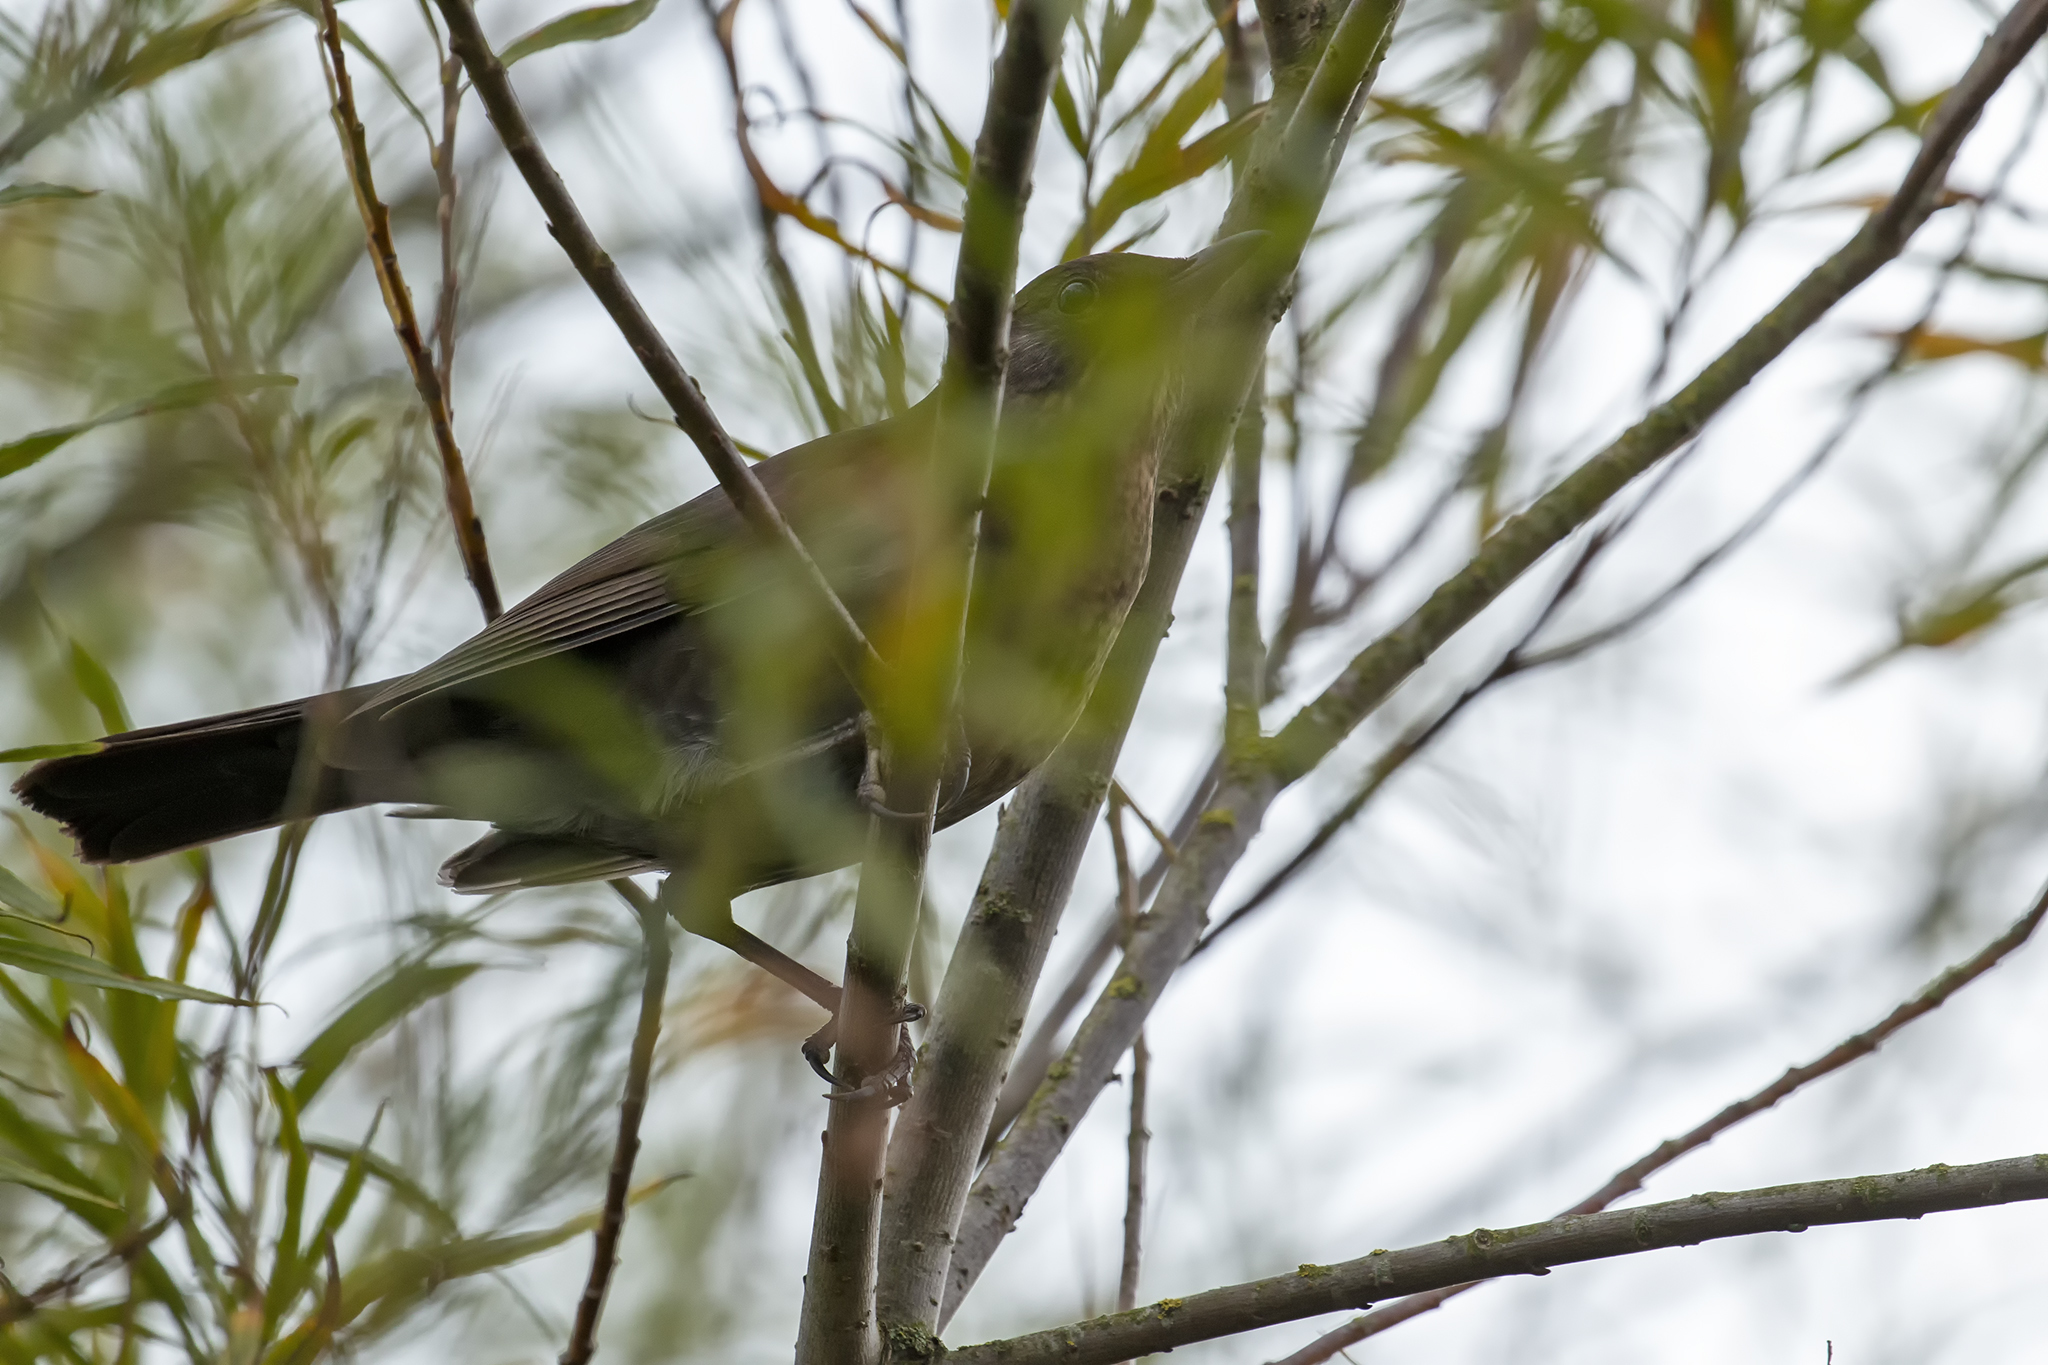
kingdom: Animalia
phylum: Chordata
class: Aves
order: Passeriformes
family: Turdidae
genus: Turdus
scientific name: Turdus merula
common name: Common blackbird
